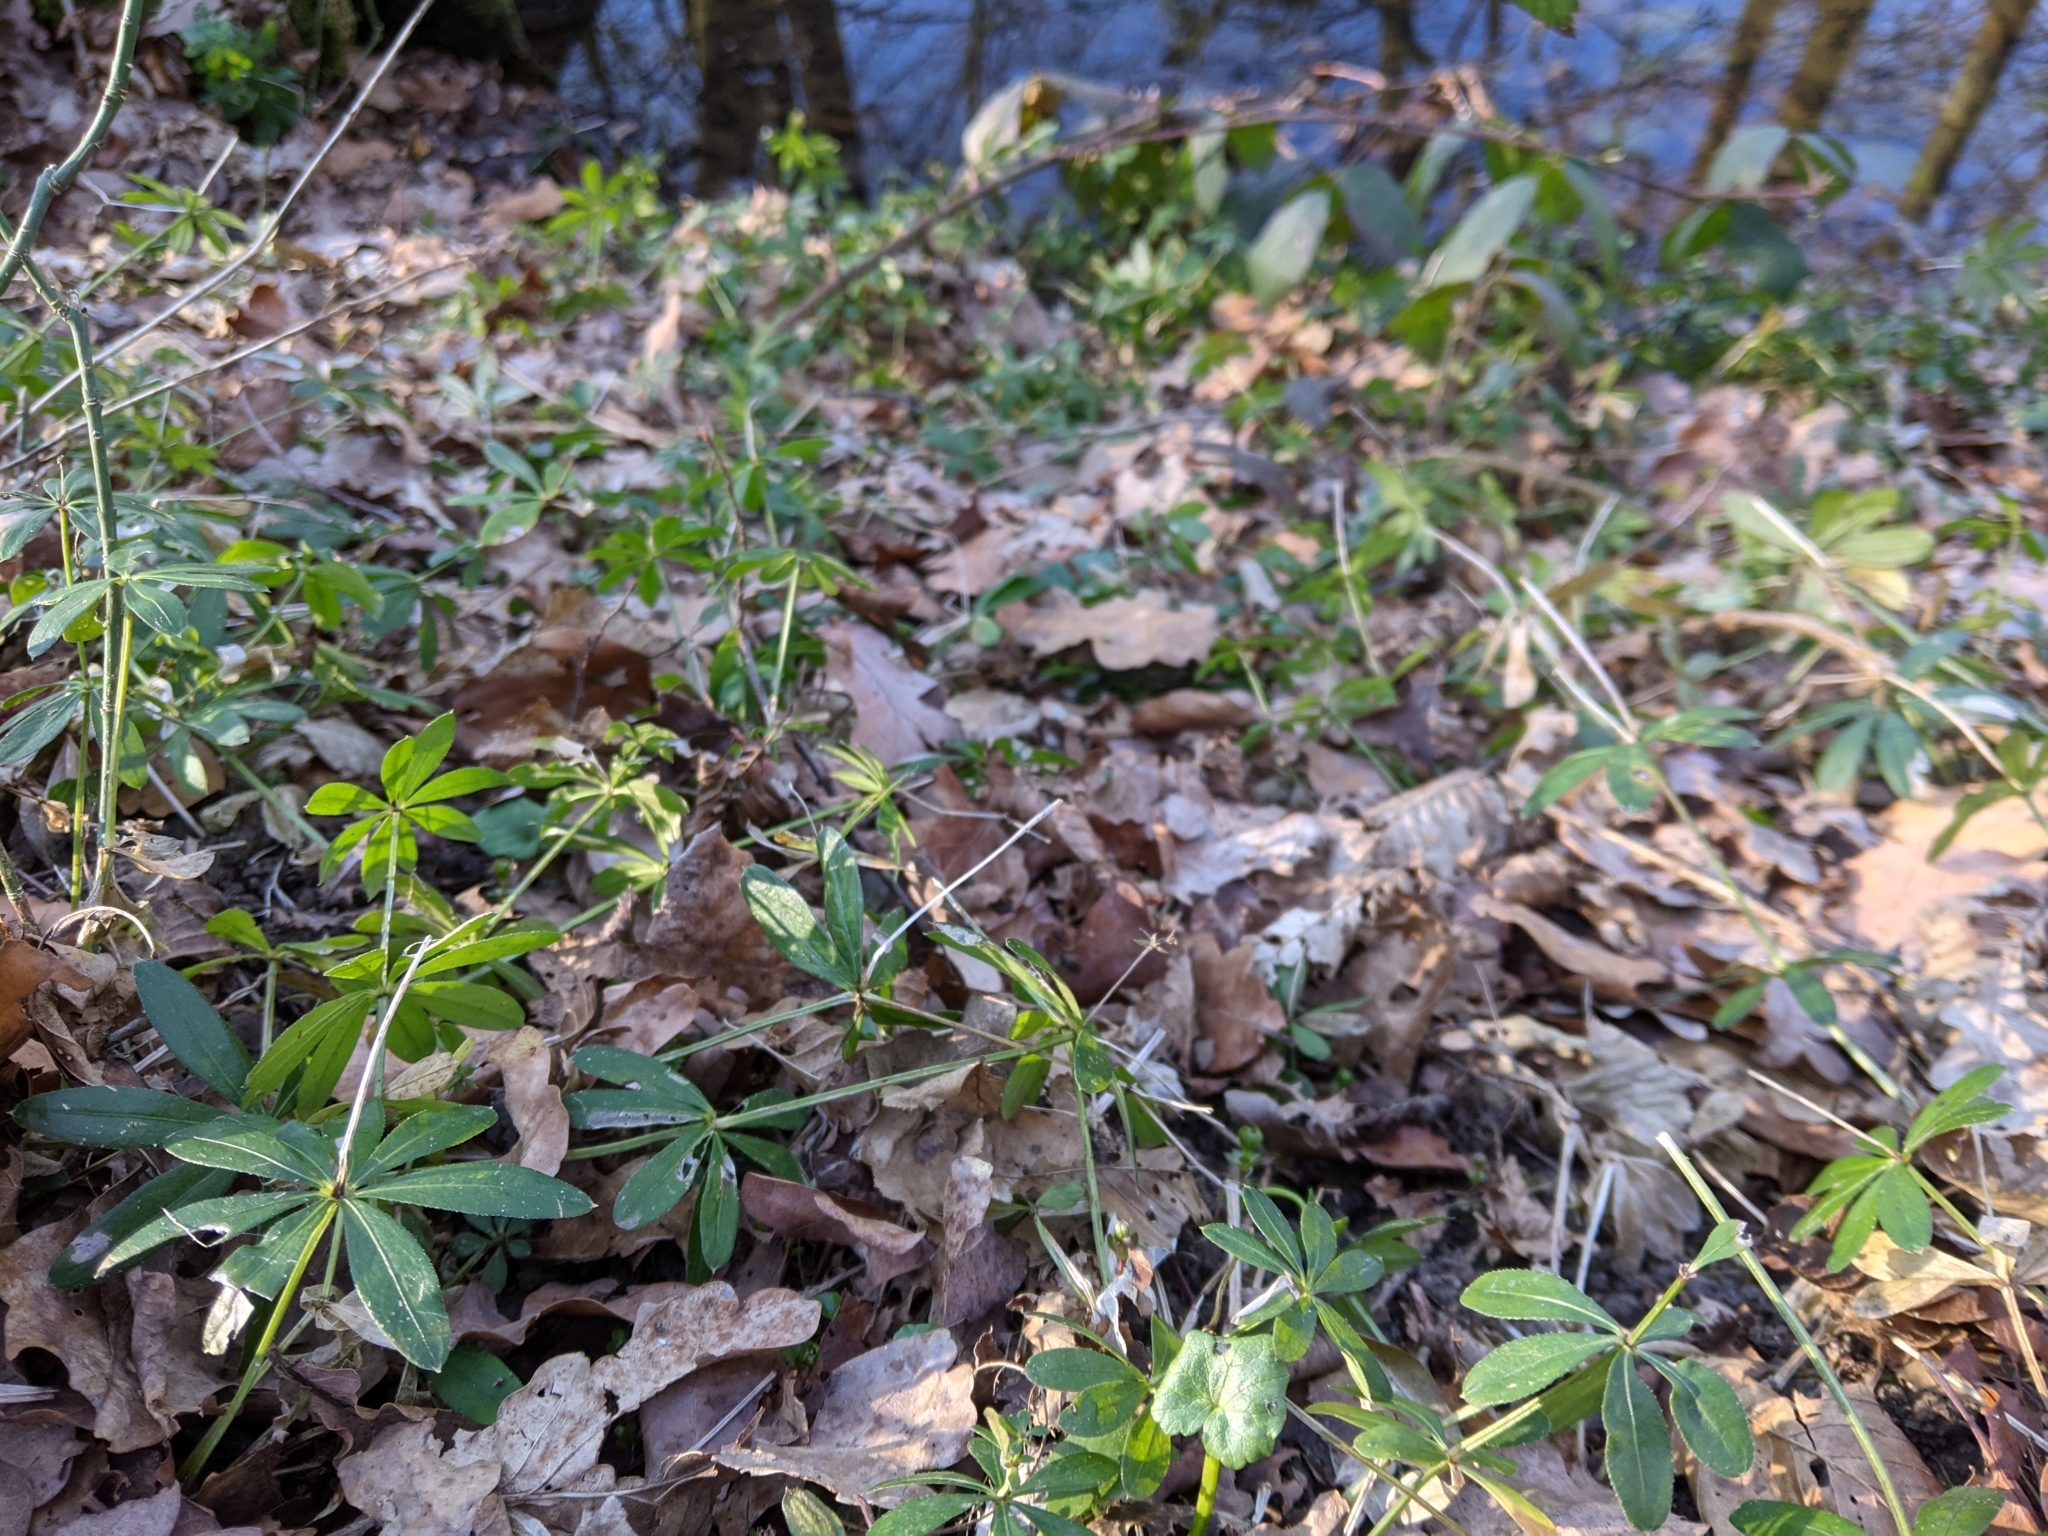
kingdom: Plantae
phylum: Tracheophyta
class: Magnoliopsida
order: Gentianales
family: Rubiaceae
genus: Galium
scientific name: Galium odoratum
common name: Sweet woodruff
